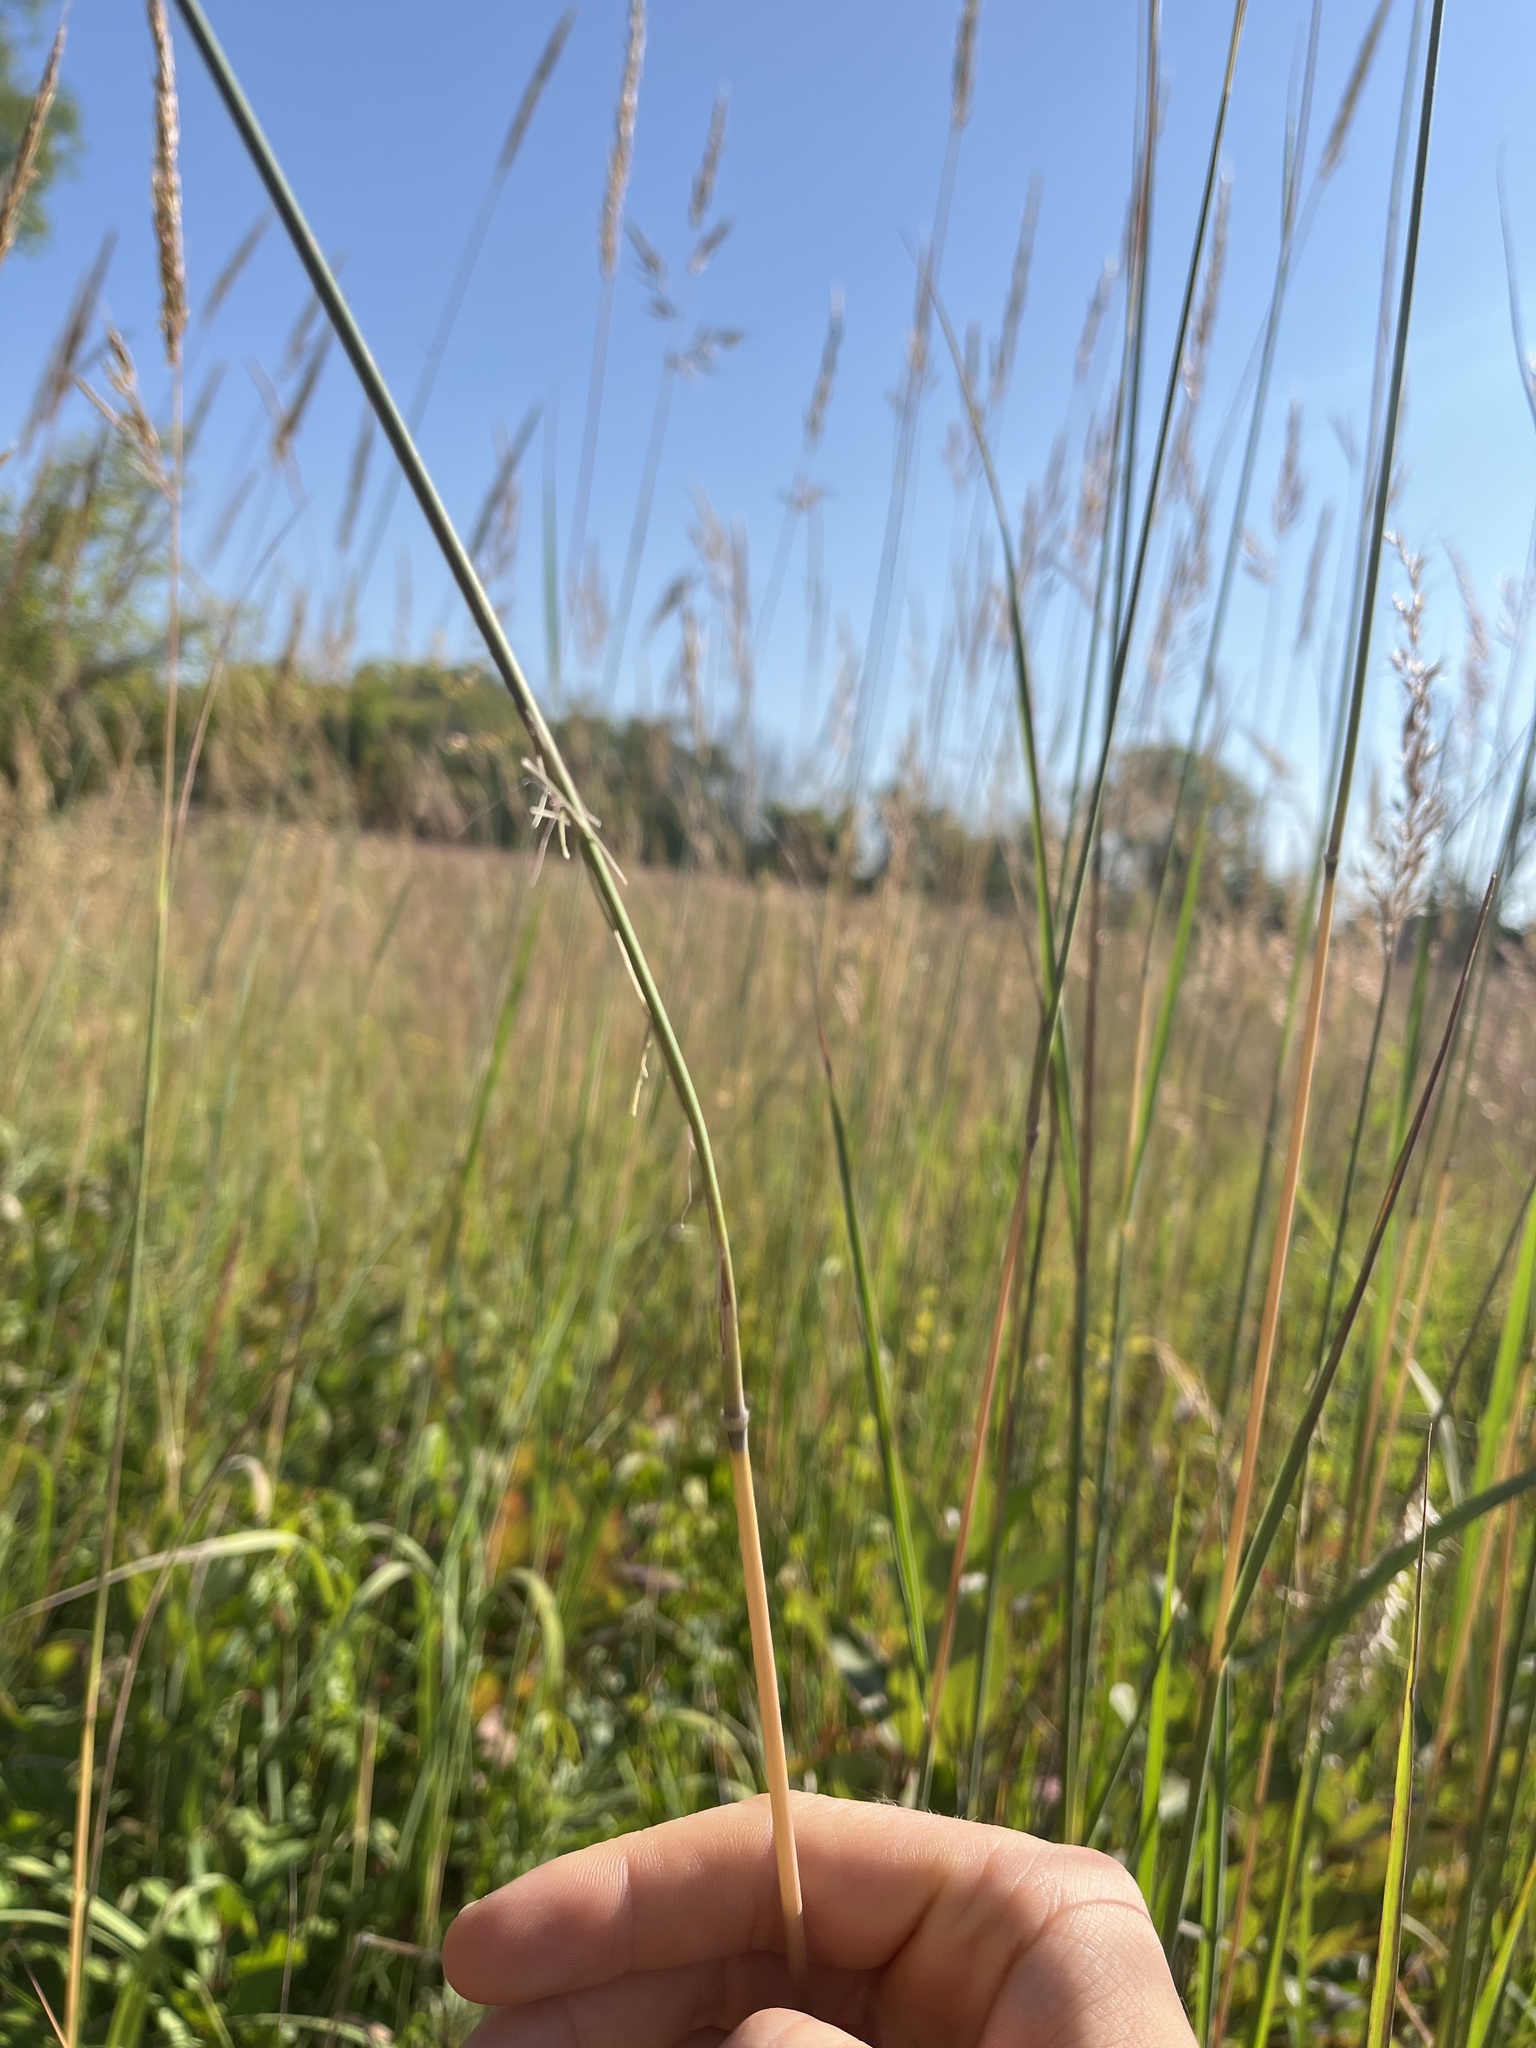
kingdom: Plantae
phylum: Tracheophyta
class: Liliopsida
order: Poales
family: Poaceae
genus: Sorghastrum
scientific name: Sorghastrum nutans
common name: Indian grass
